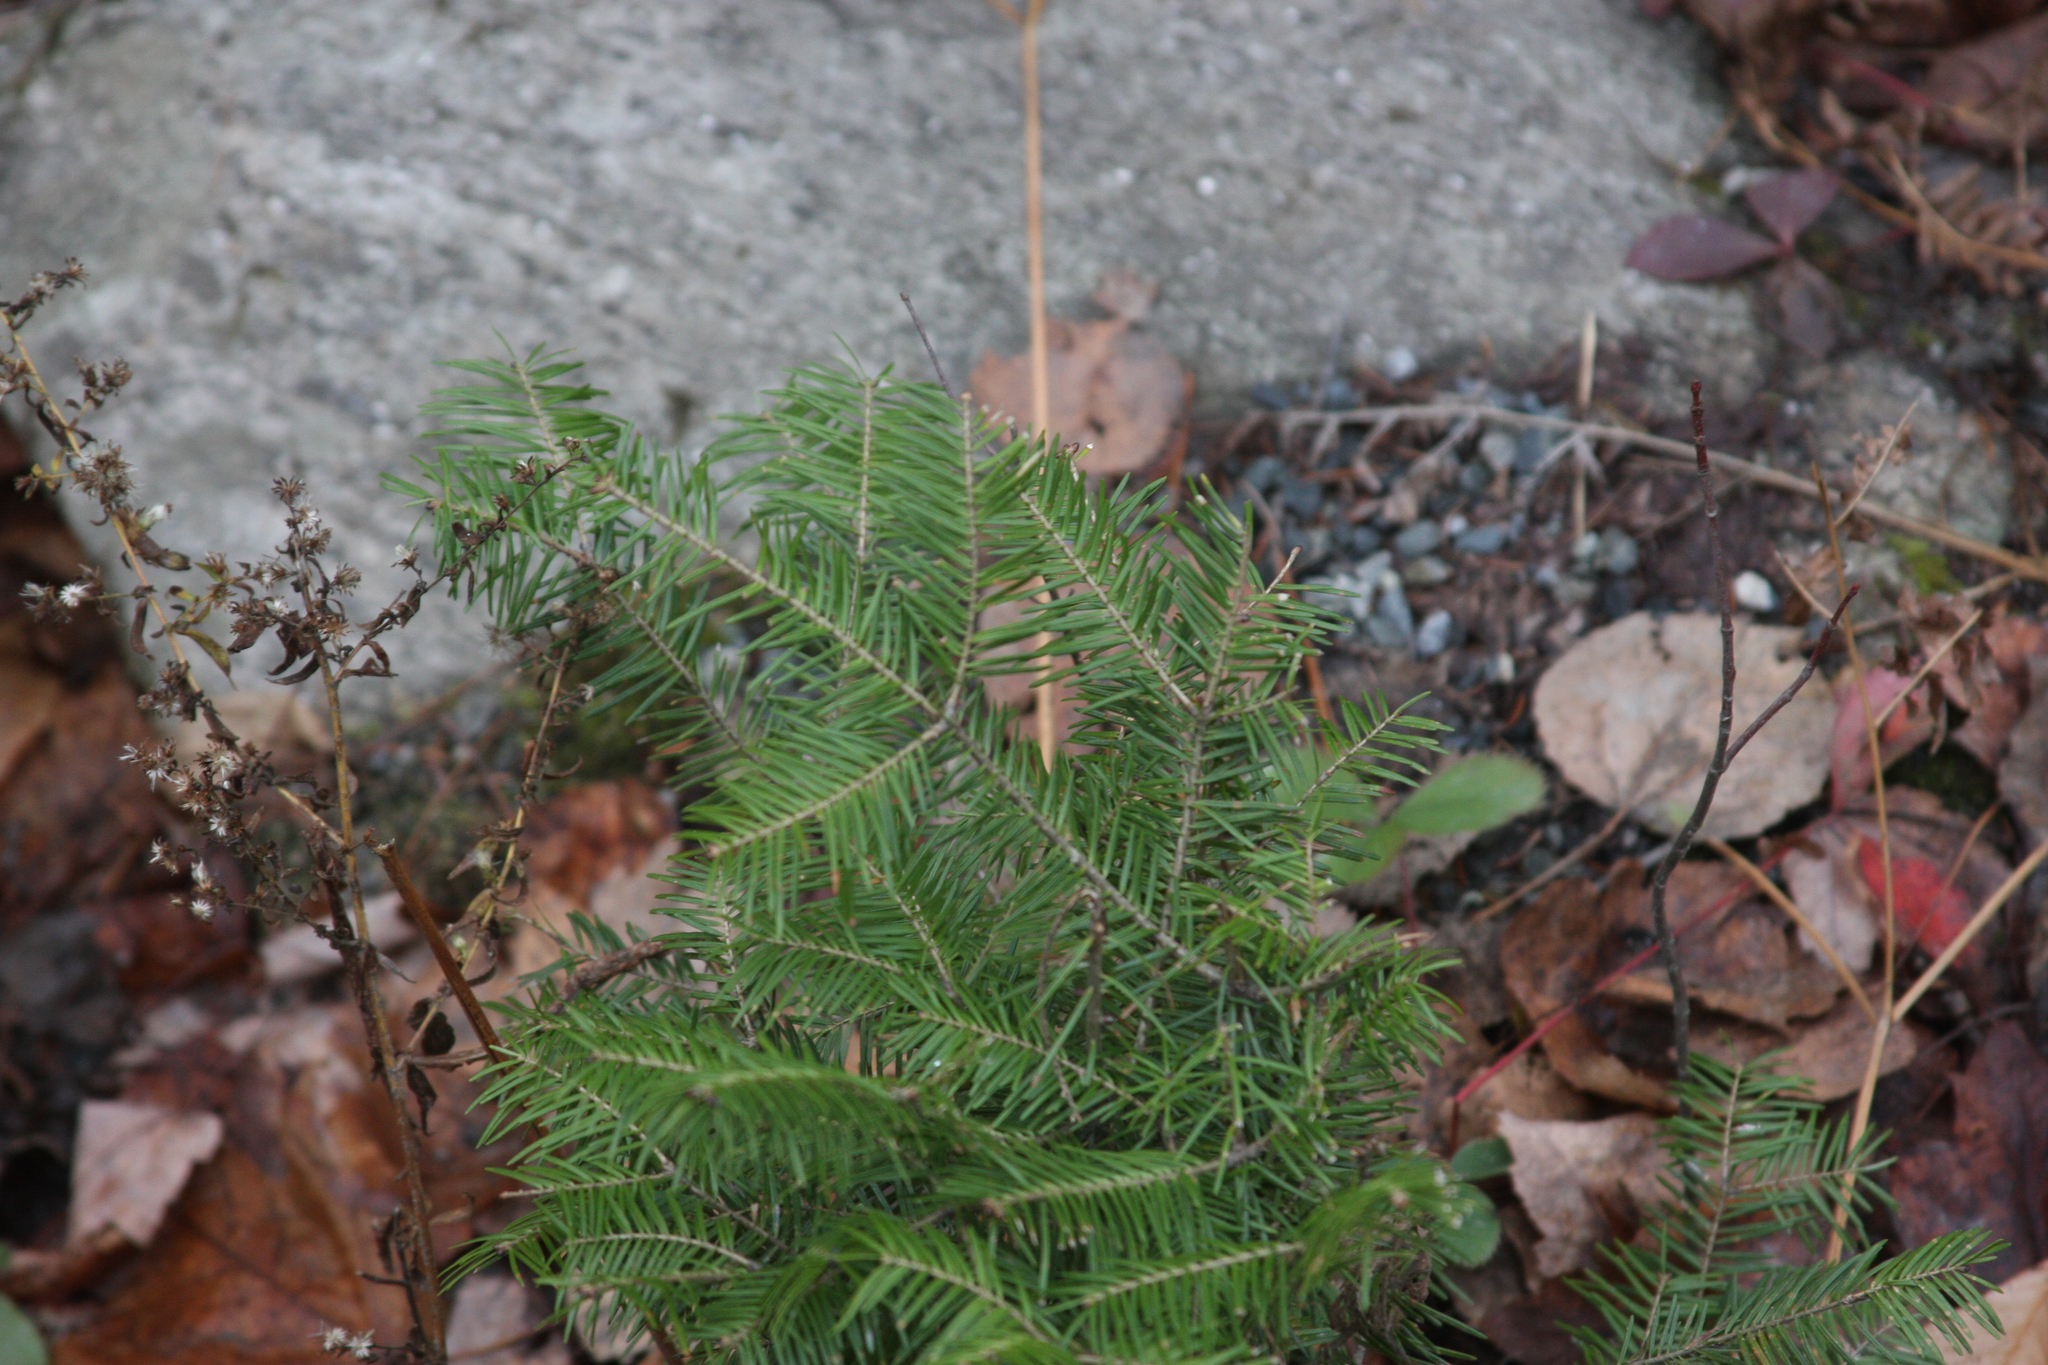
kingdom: Plantae
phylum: Tracheophyta
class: Pinopsida
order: Pinales
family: Pinaceae
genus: Abies
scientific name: Abies balsamea
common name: Balsam fir
